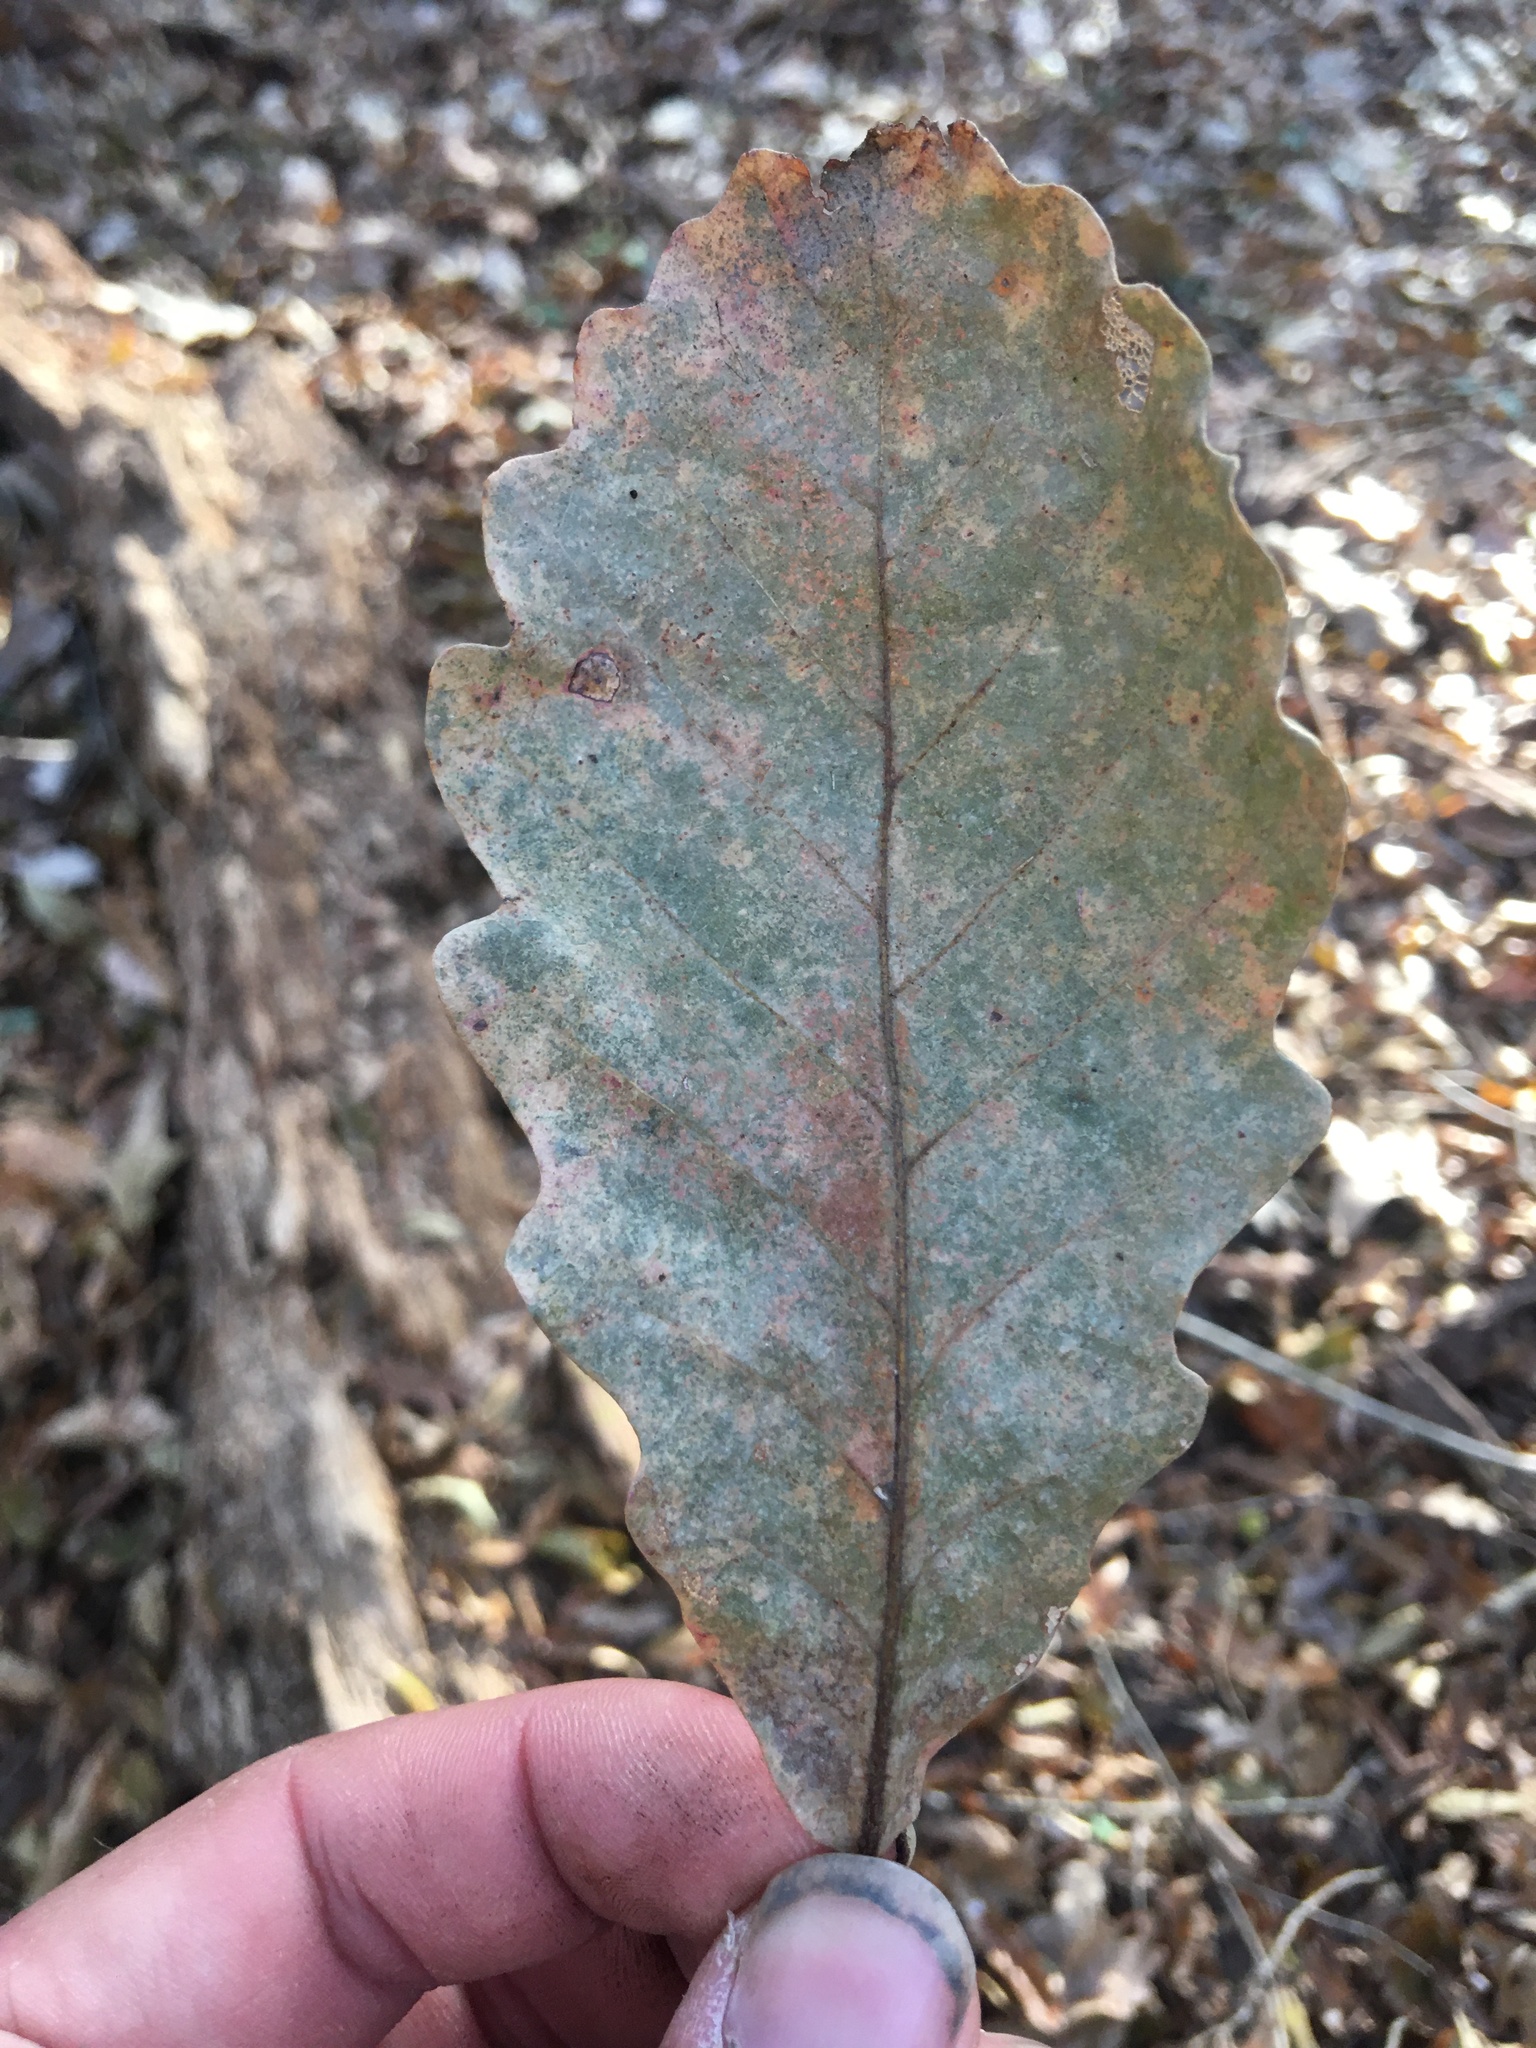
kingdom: Plantae
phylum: Tracheophyta
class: Magnoliopsida
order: Fagales
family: Fagaceae
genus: Quercus
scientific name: Quercus michauxii
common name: Swamp chestnut oak
